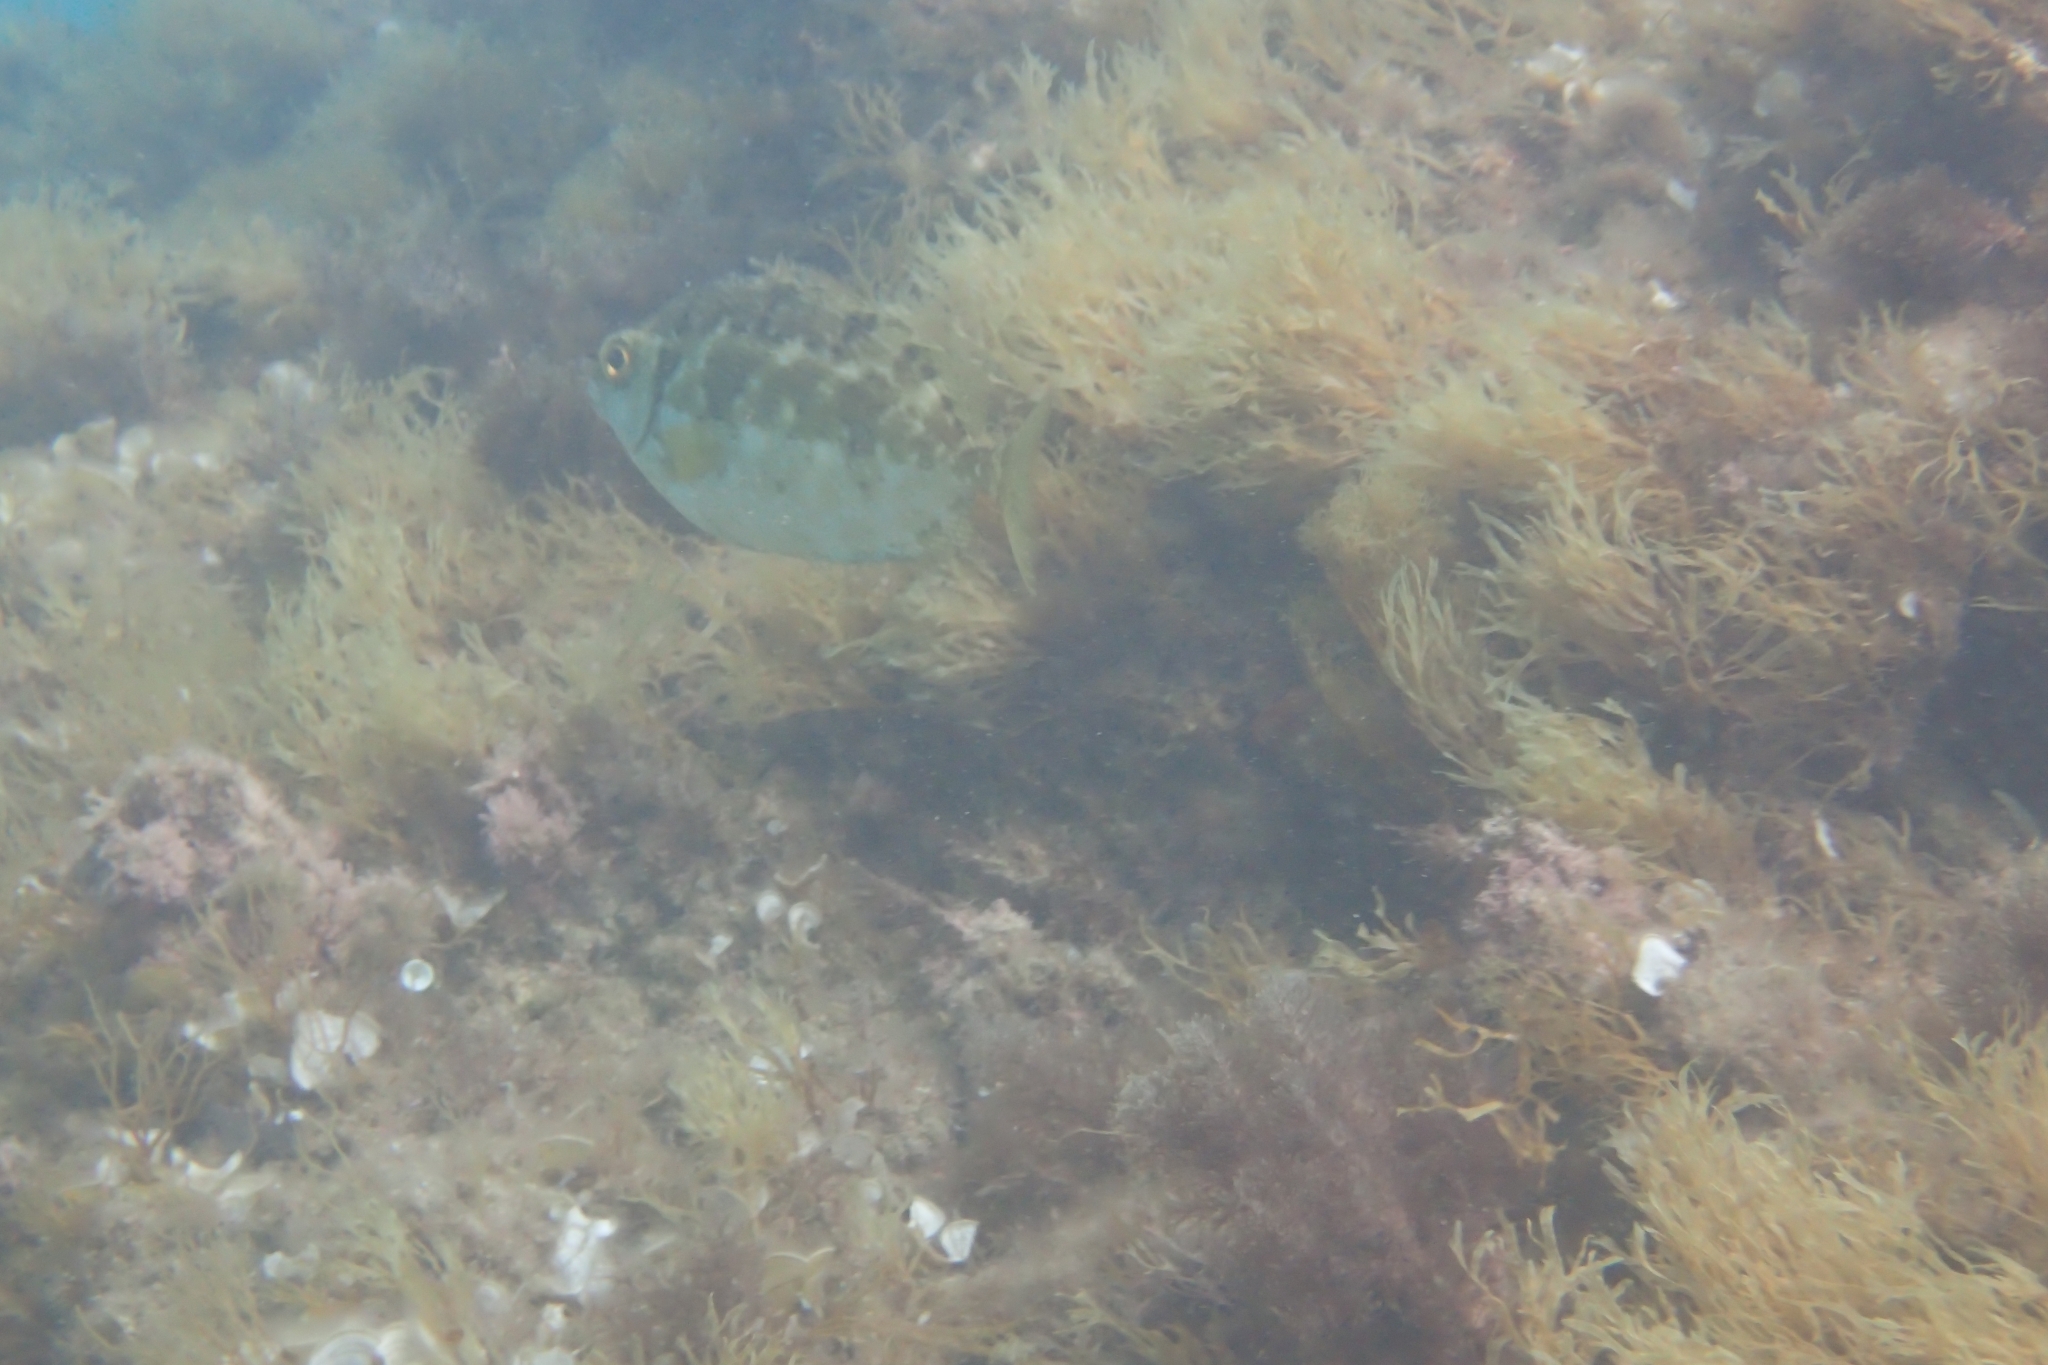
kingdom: Animalia
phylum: Chordata
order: Perciformes
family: Siganidae
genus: Siganus
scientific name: Siganus luridus
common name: Dusky spinefoot
